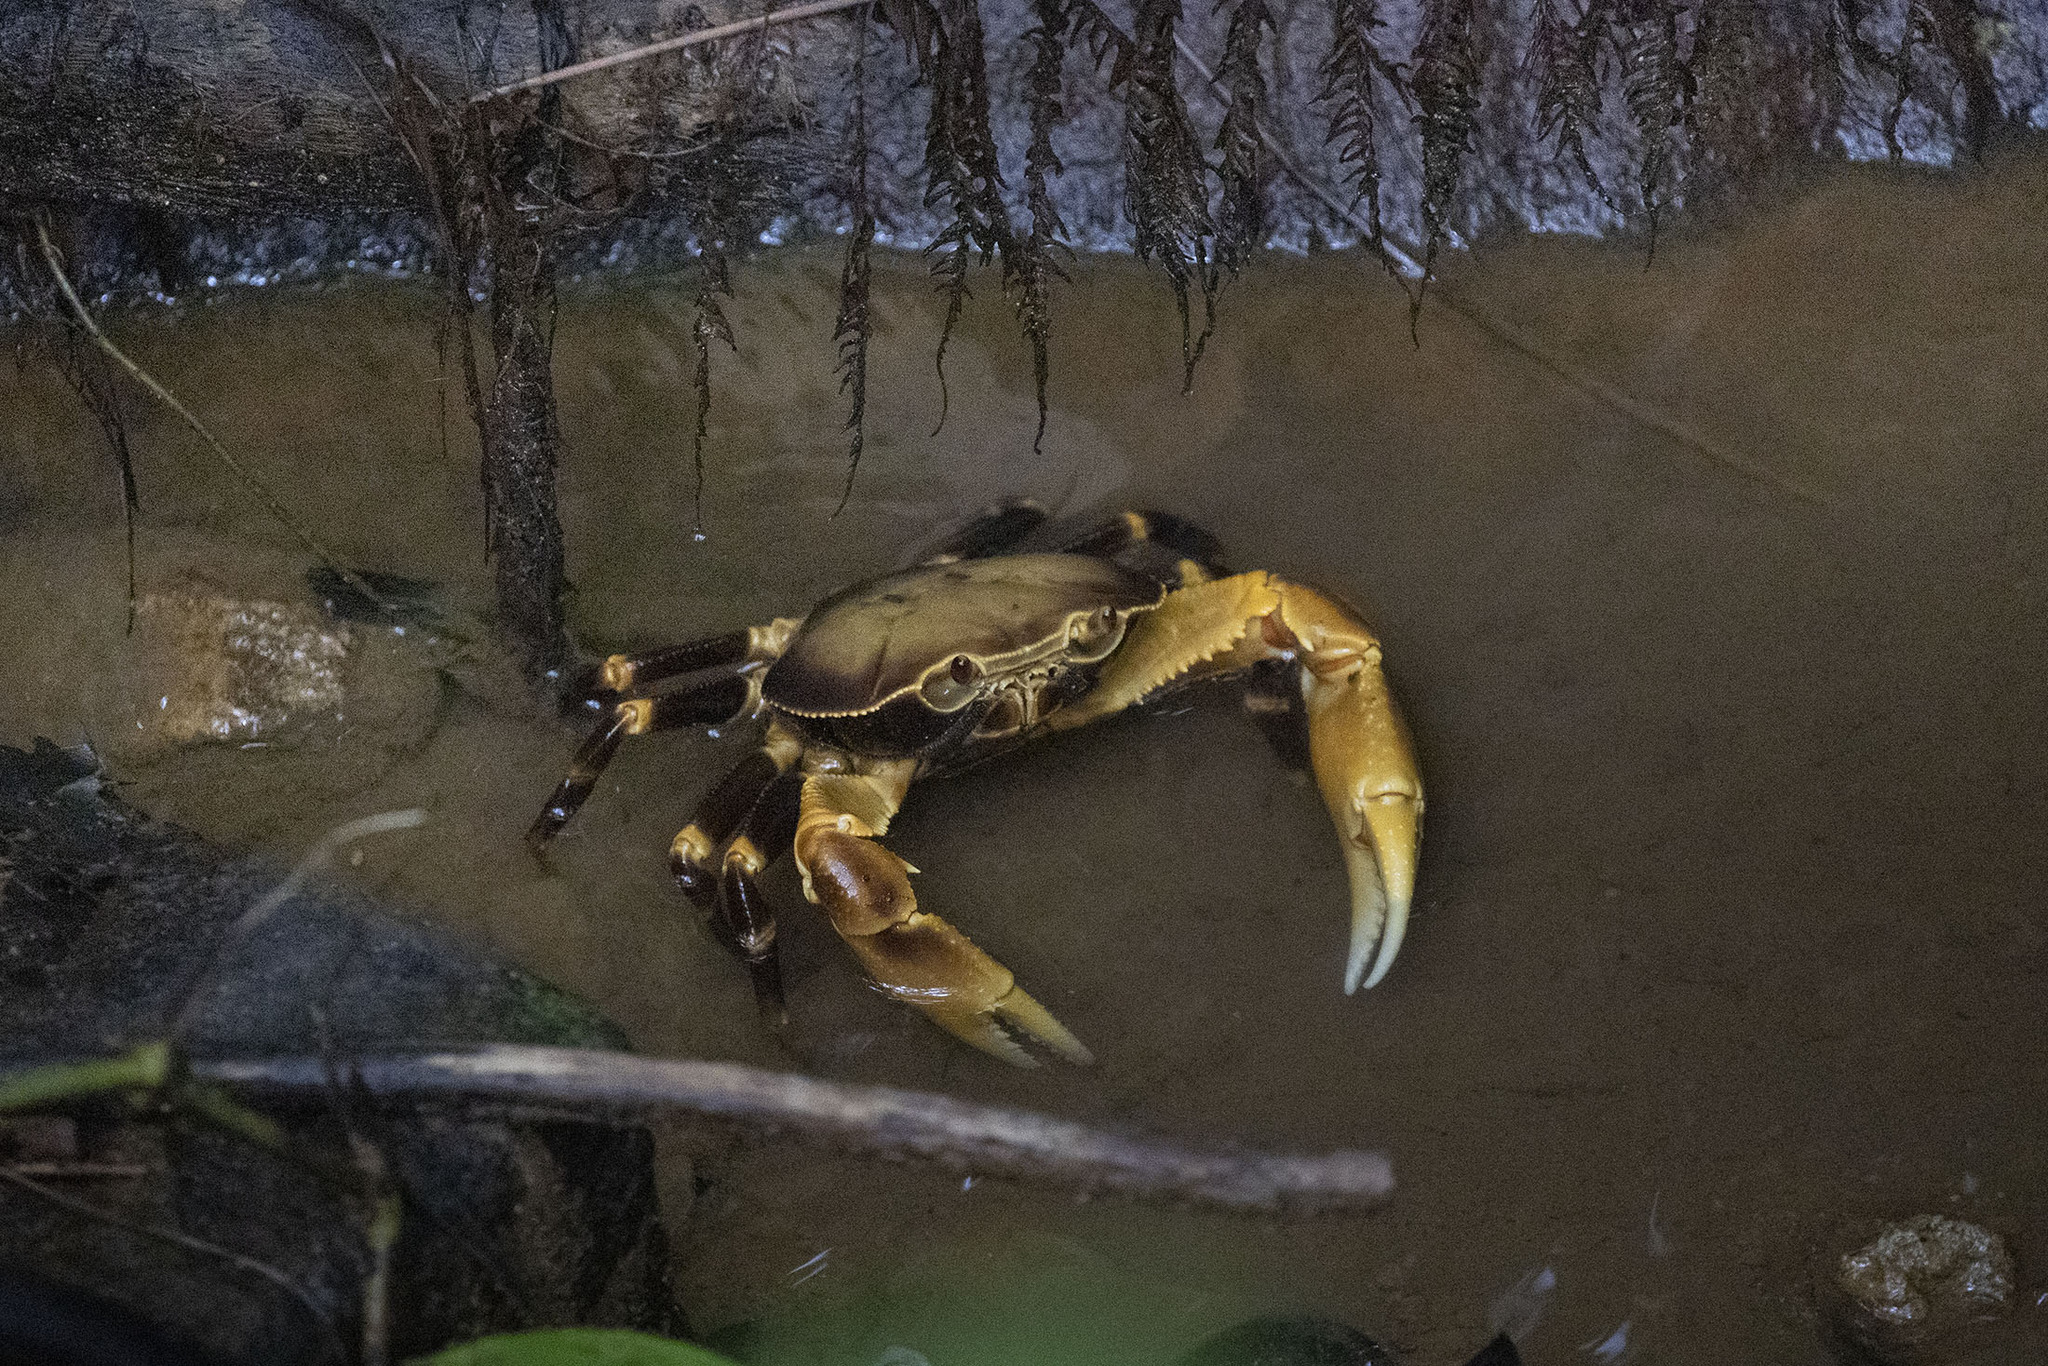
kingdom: Animalia
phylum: Arthropoda
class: Malacostraca
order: Decapoda
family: Pseudothelphusidae
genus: Guinotia
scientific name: Guinotia dentata
